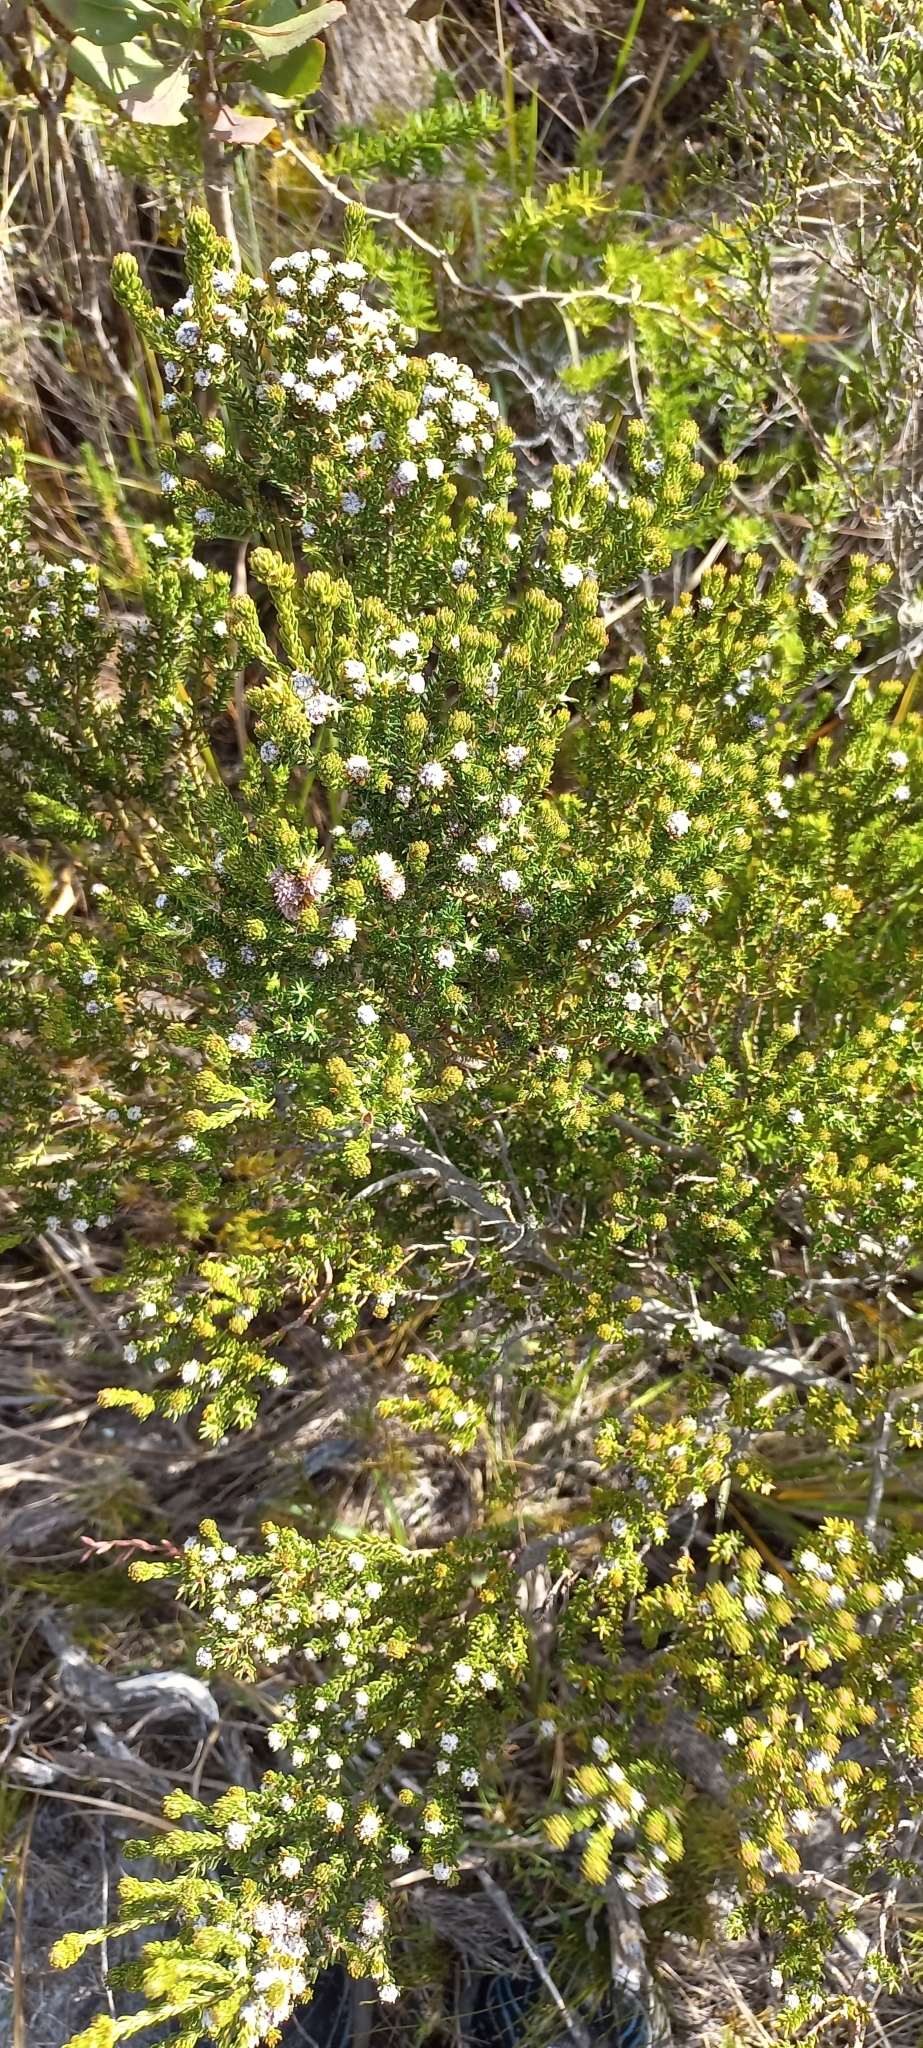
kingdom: Plantae
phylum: Tracheophyta
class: Magnoliopsida
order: Rosales
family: Rhamnaceae
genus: Phylica
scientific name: Phylica ericoides
